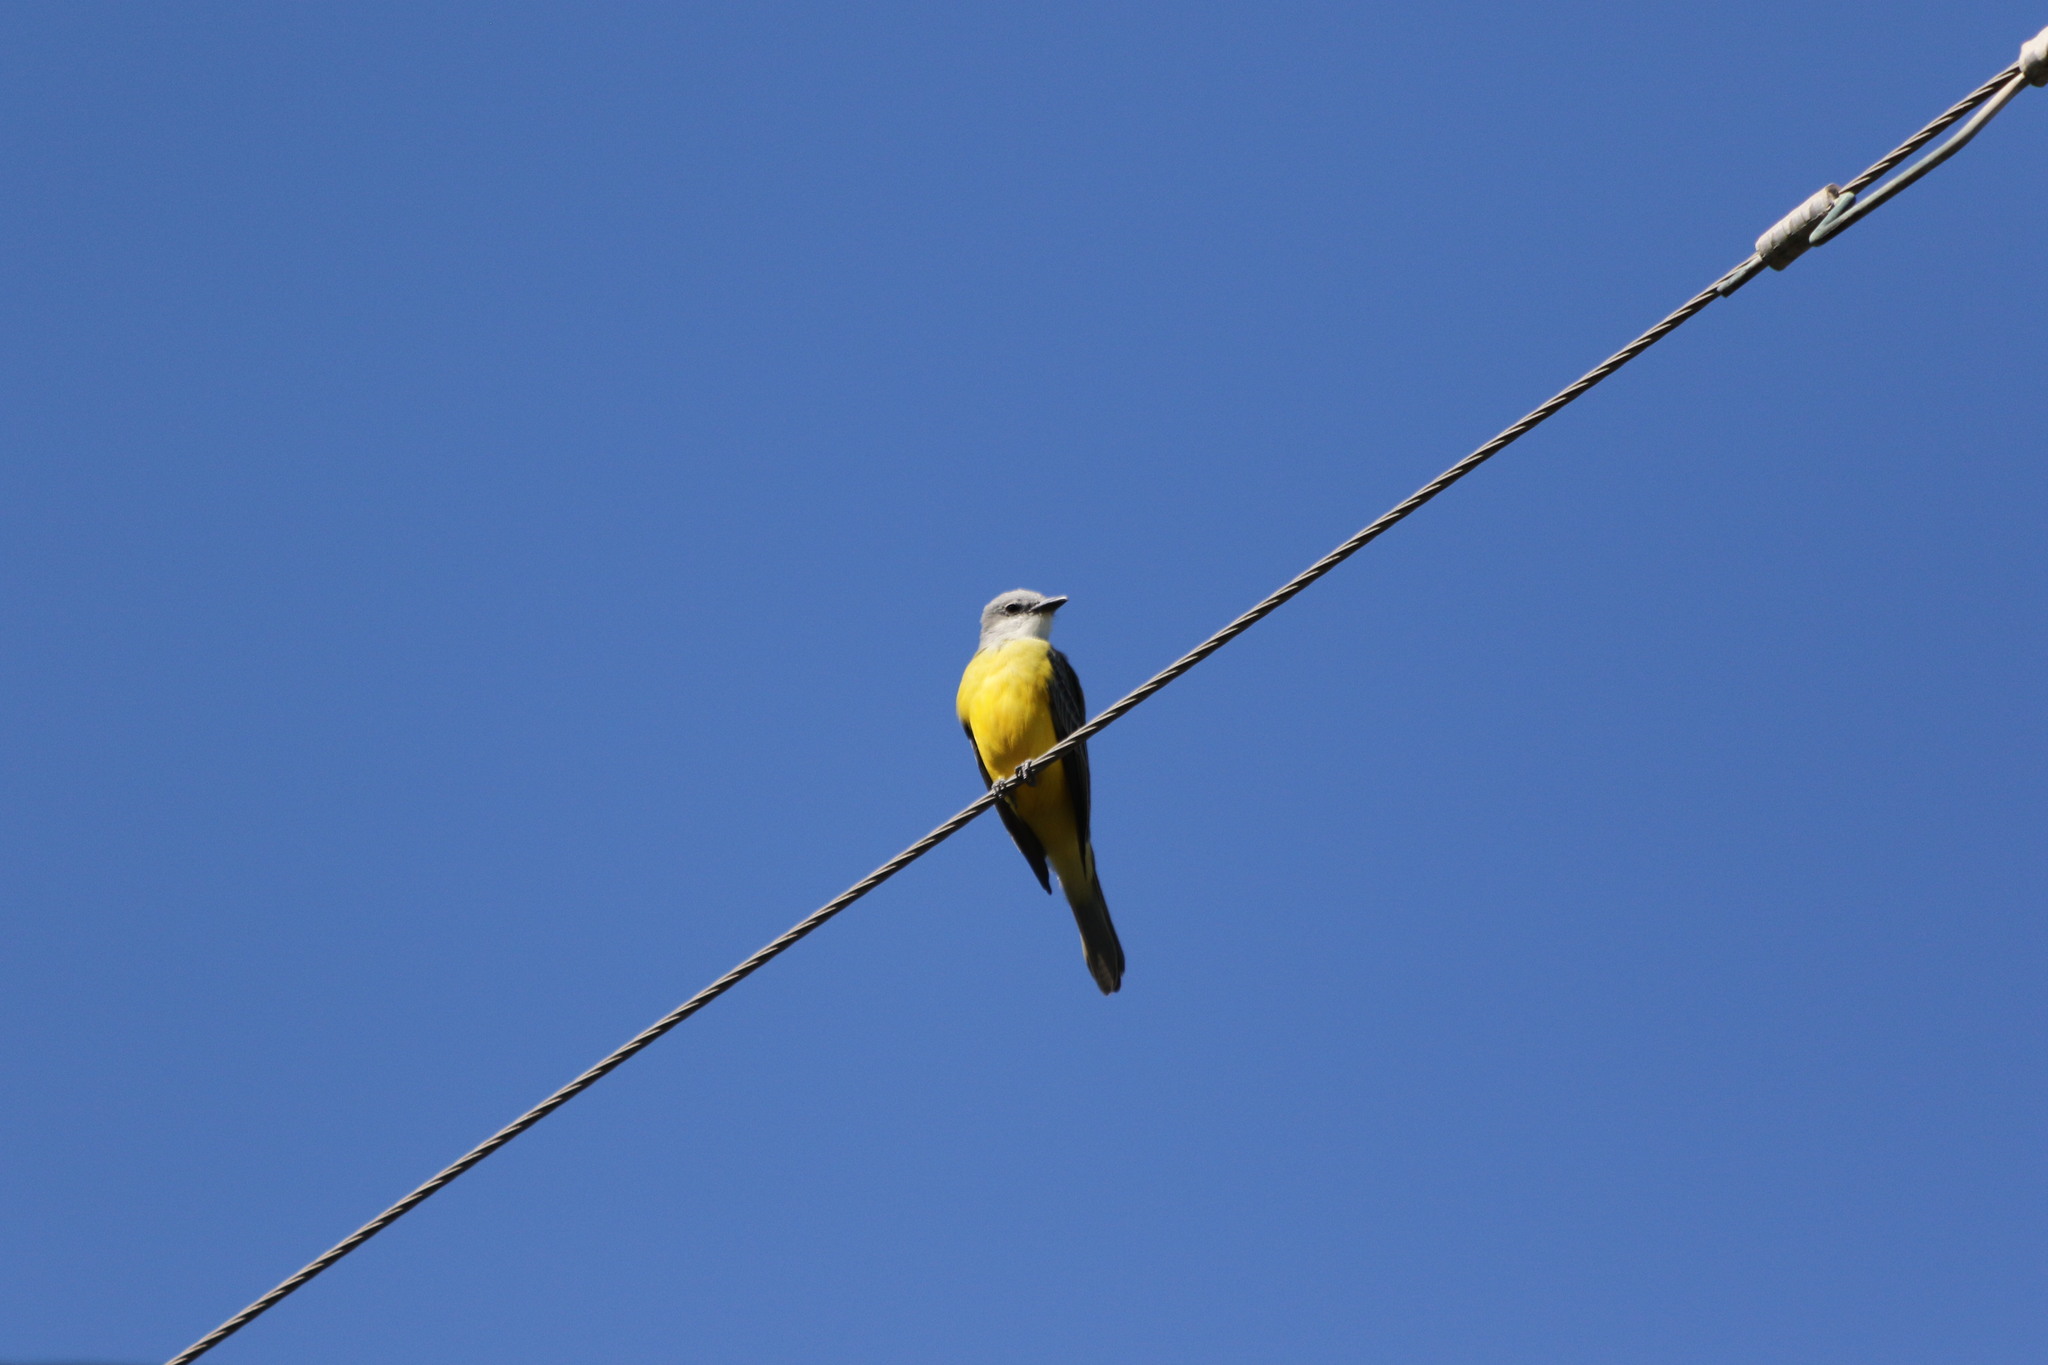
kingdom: Animalia
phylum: Chordata
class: Aves
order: Passeriformes
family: Tyrannidae
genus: Tyrannus
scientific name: Tyrannus couchii
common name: Couch's kingbird
